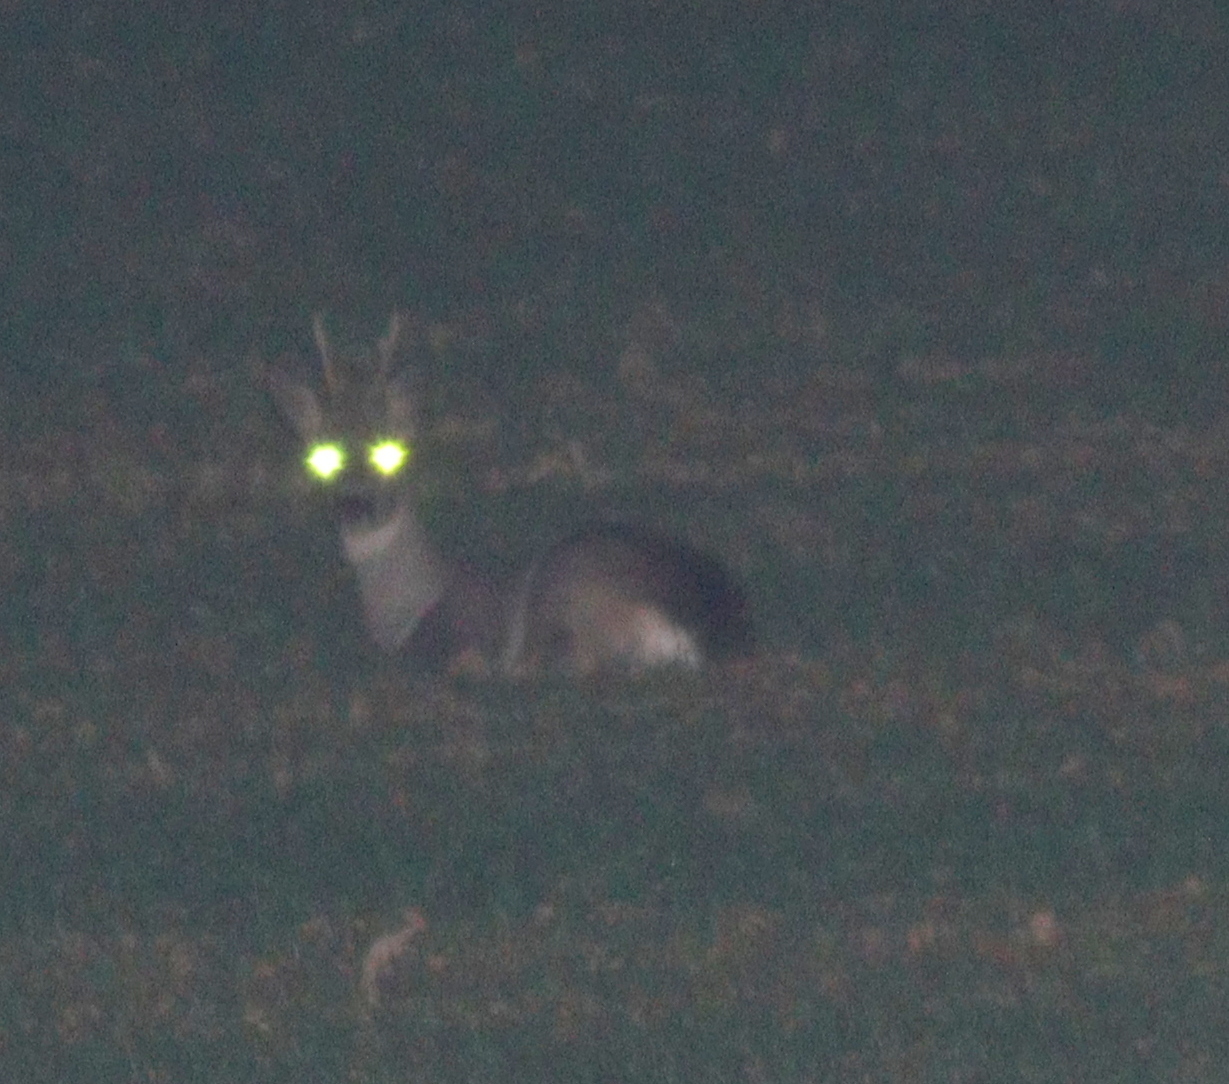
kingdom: Animalia
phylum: Chordata
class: Mammalia
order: Artiodactyla
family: Cervidae
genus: Capreolus
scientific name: Capreolus capreolus
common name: Western roe deer
